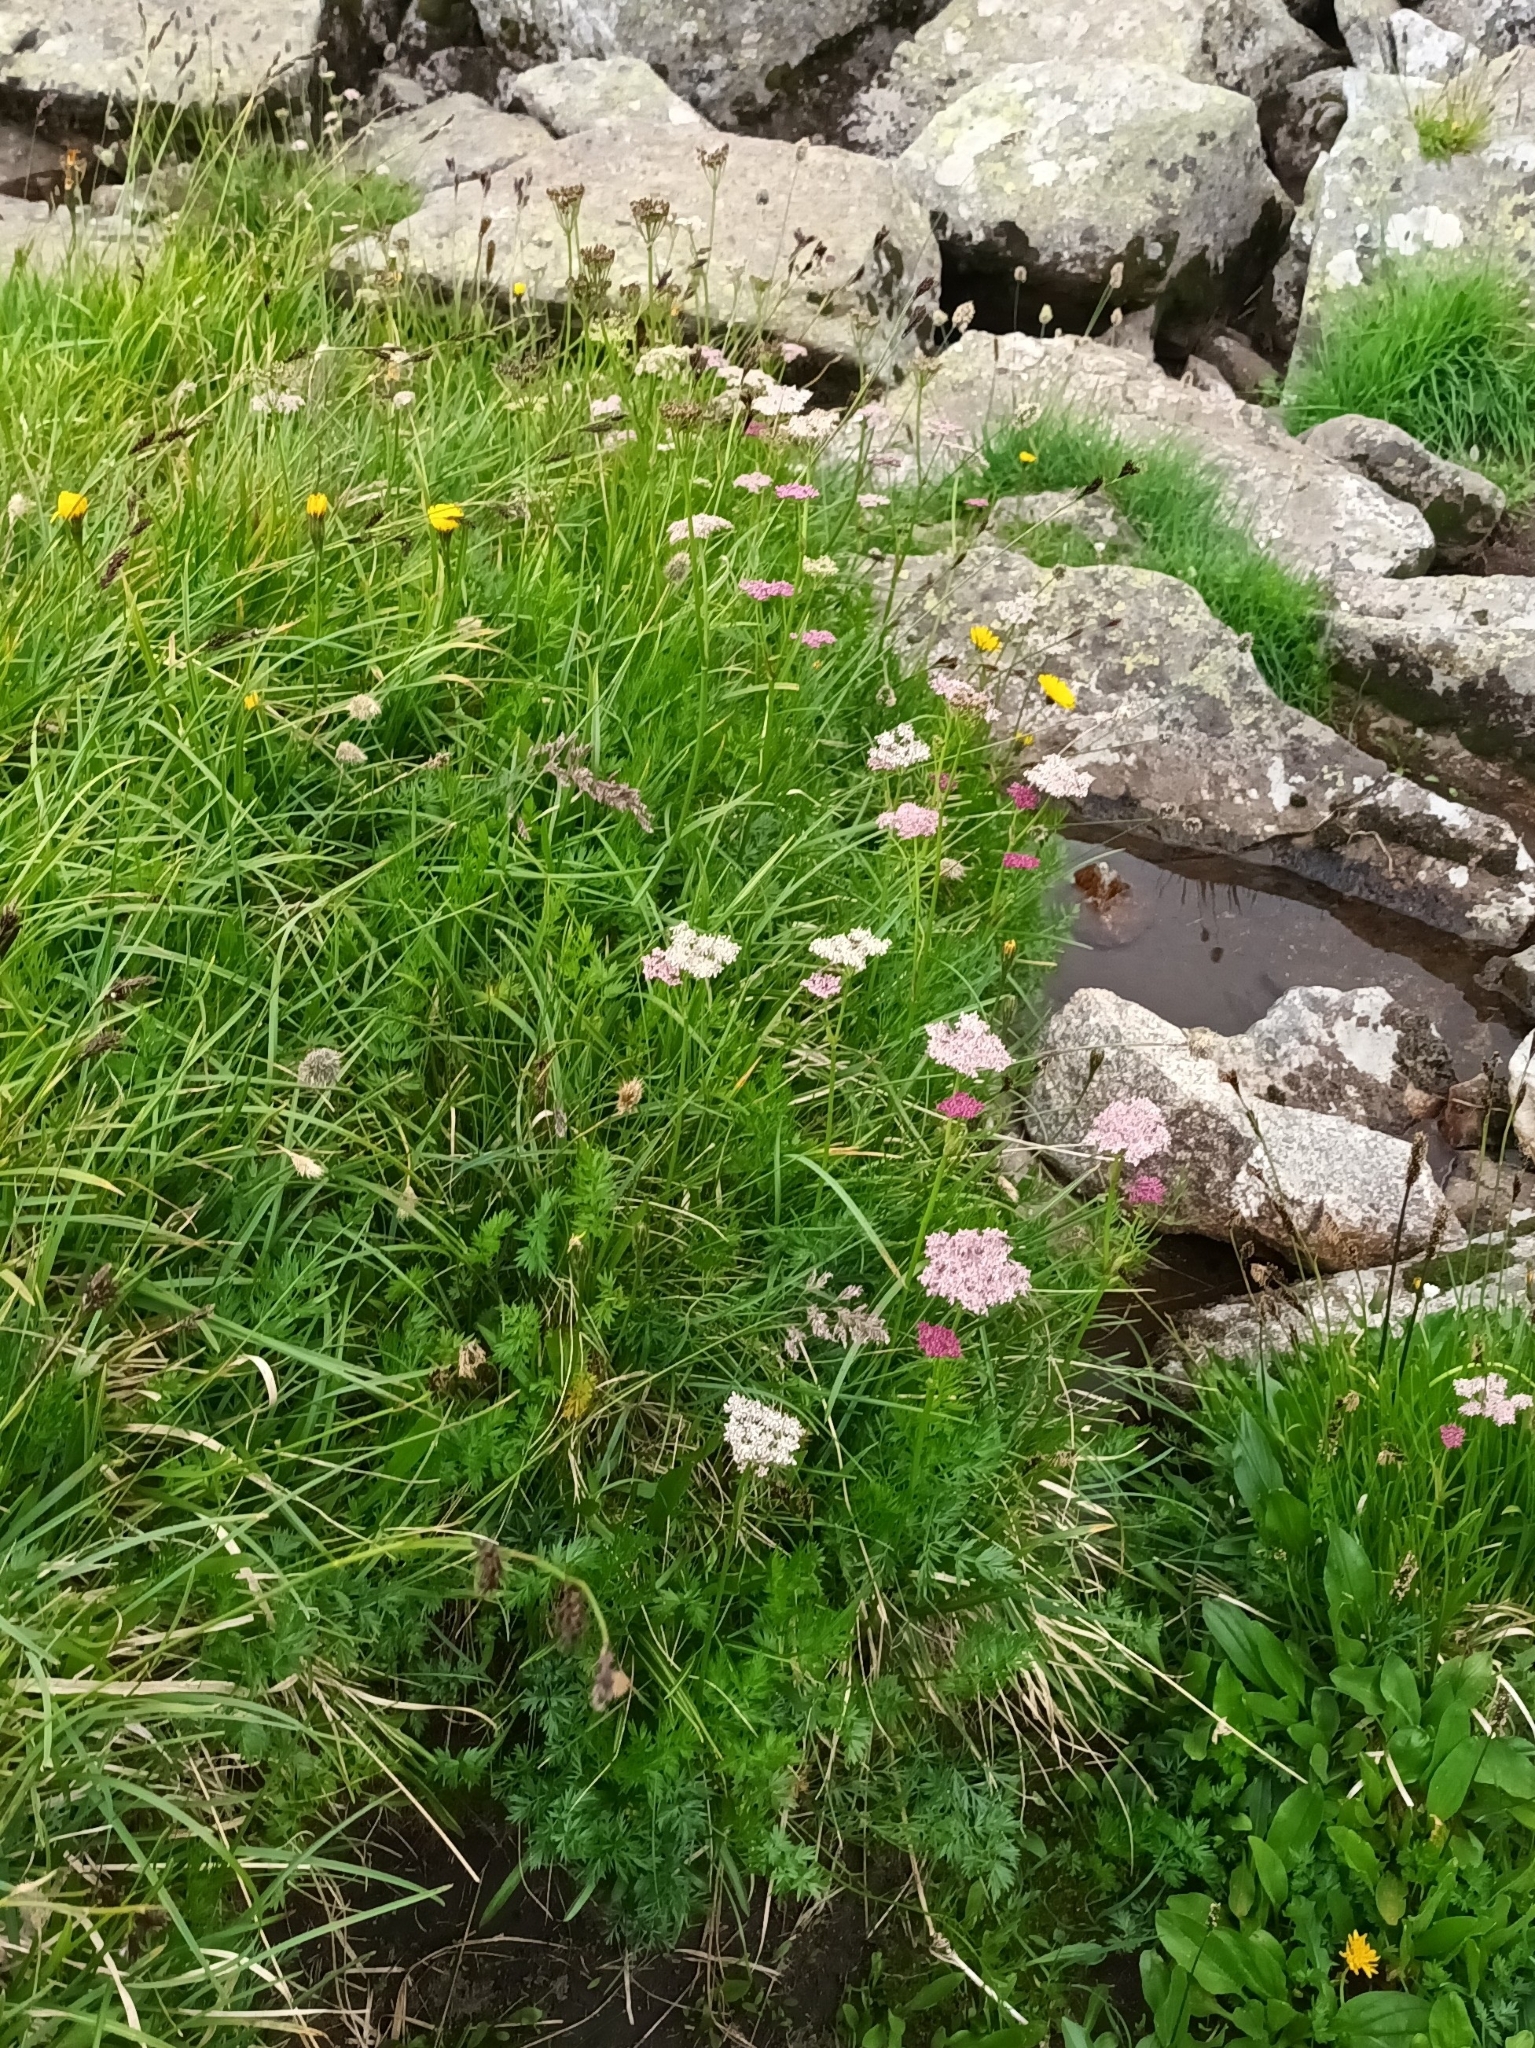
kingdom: Plantae
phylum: Tracheophyta
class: Magnoliopsida
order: Apiales
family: Apiaceae
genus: Mutellina
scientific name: Mutellina adonidifolia
